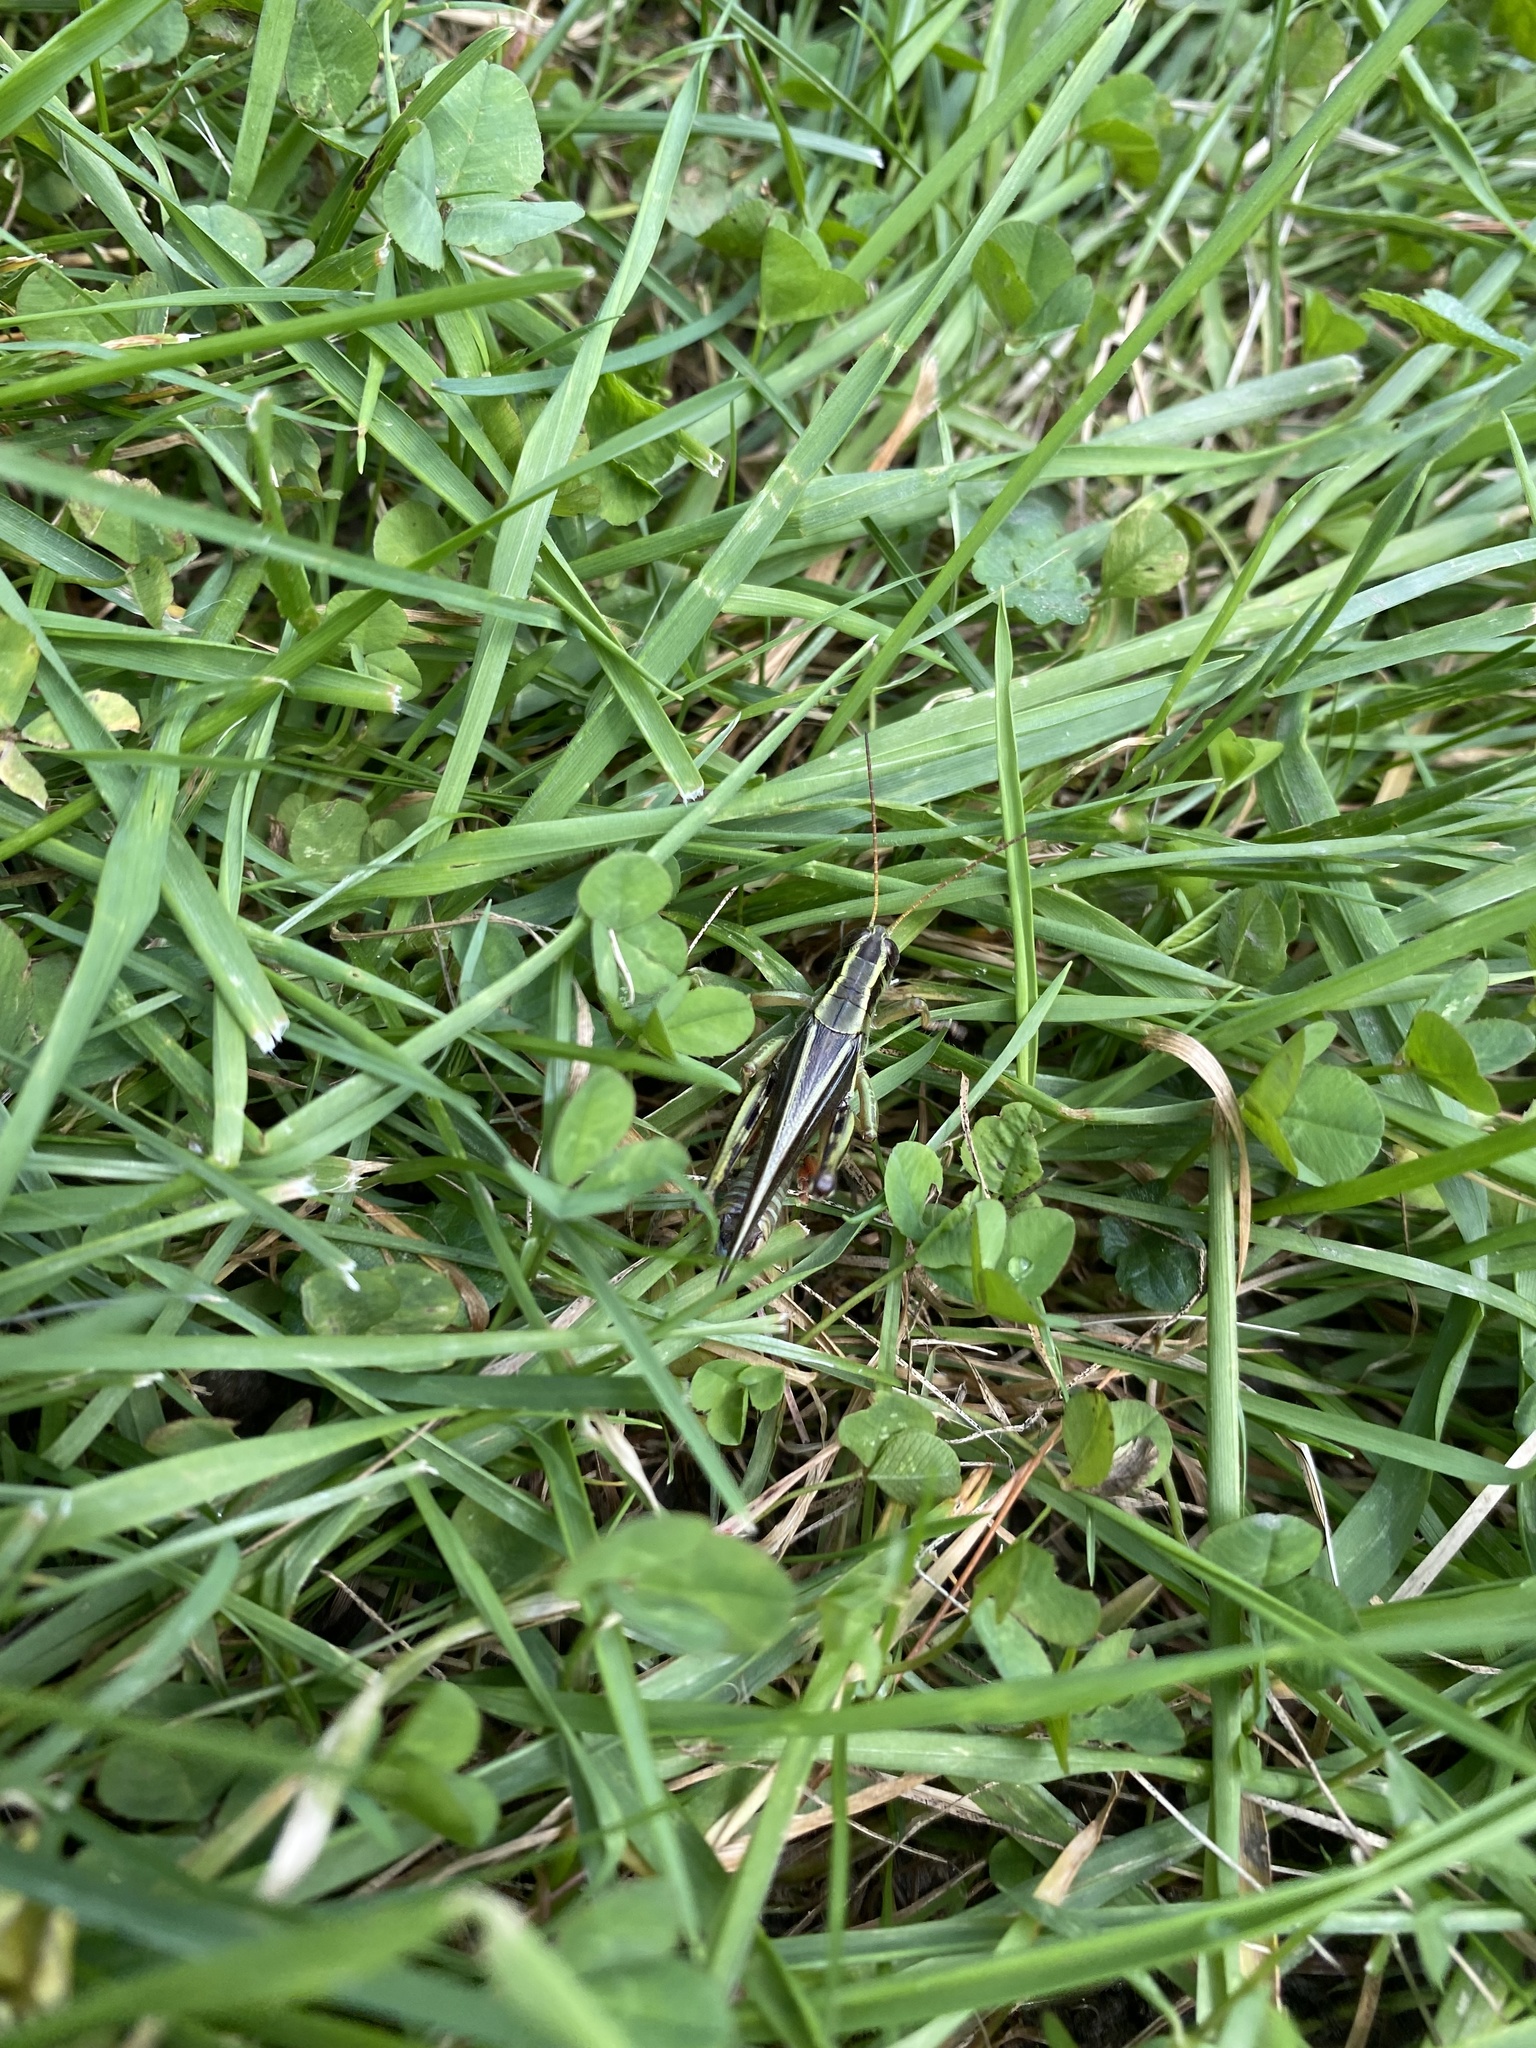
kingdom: Animalia
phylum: Arthropoda
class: Insecta
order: Orthoptera
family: Acrididae
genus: Melanoplus
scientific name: Melanoplus bivittatus
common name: Two-striped grasshopper
